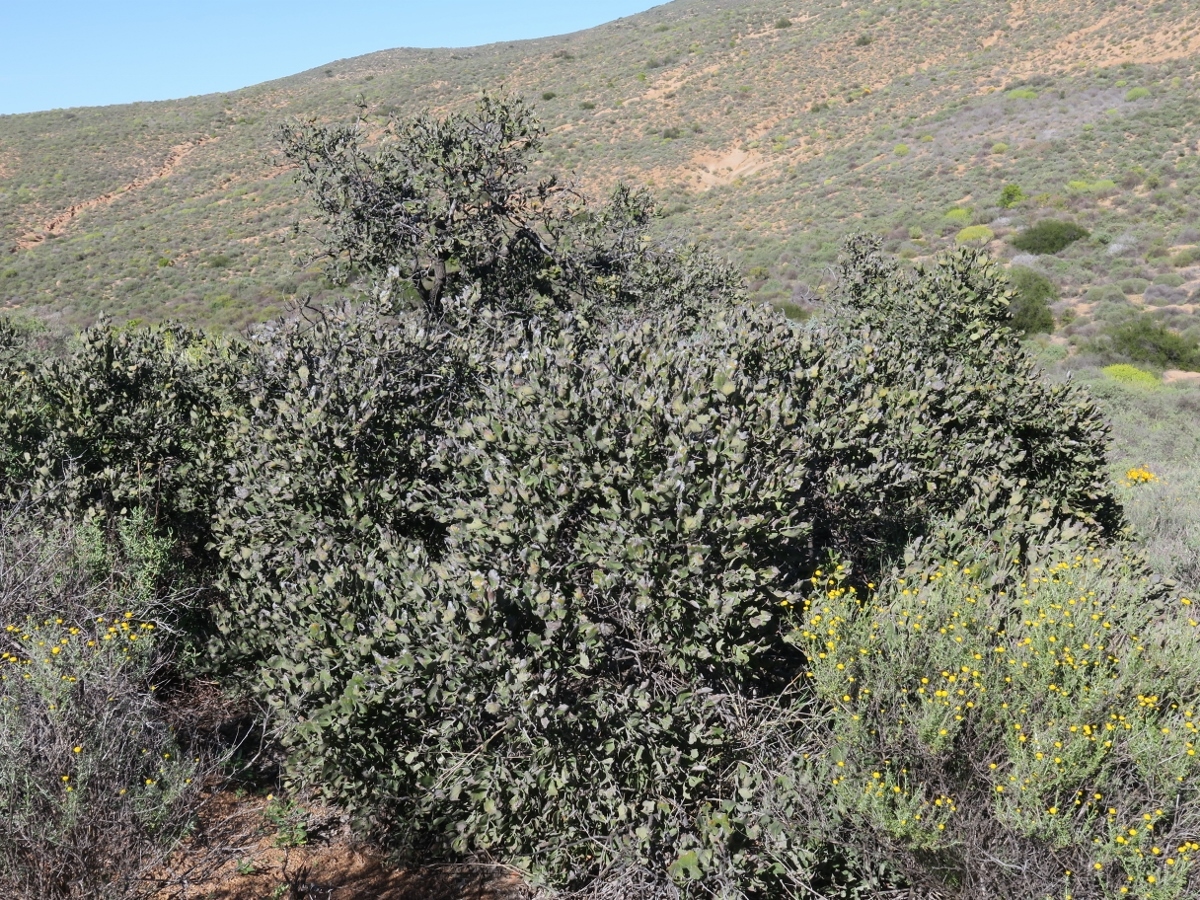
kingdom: Plantae
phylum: Tracheophyta
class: Magnoliopsida
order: Ericales
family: Ebenaceae
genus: Euclea
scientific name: Euclea tomentosa
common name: Honey guarri
